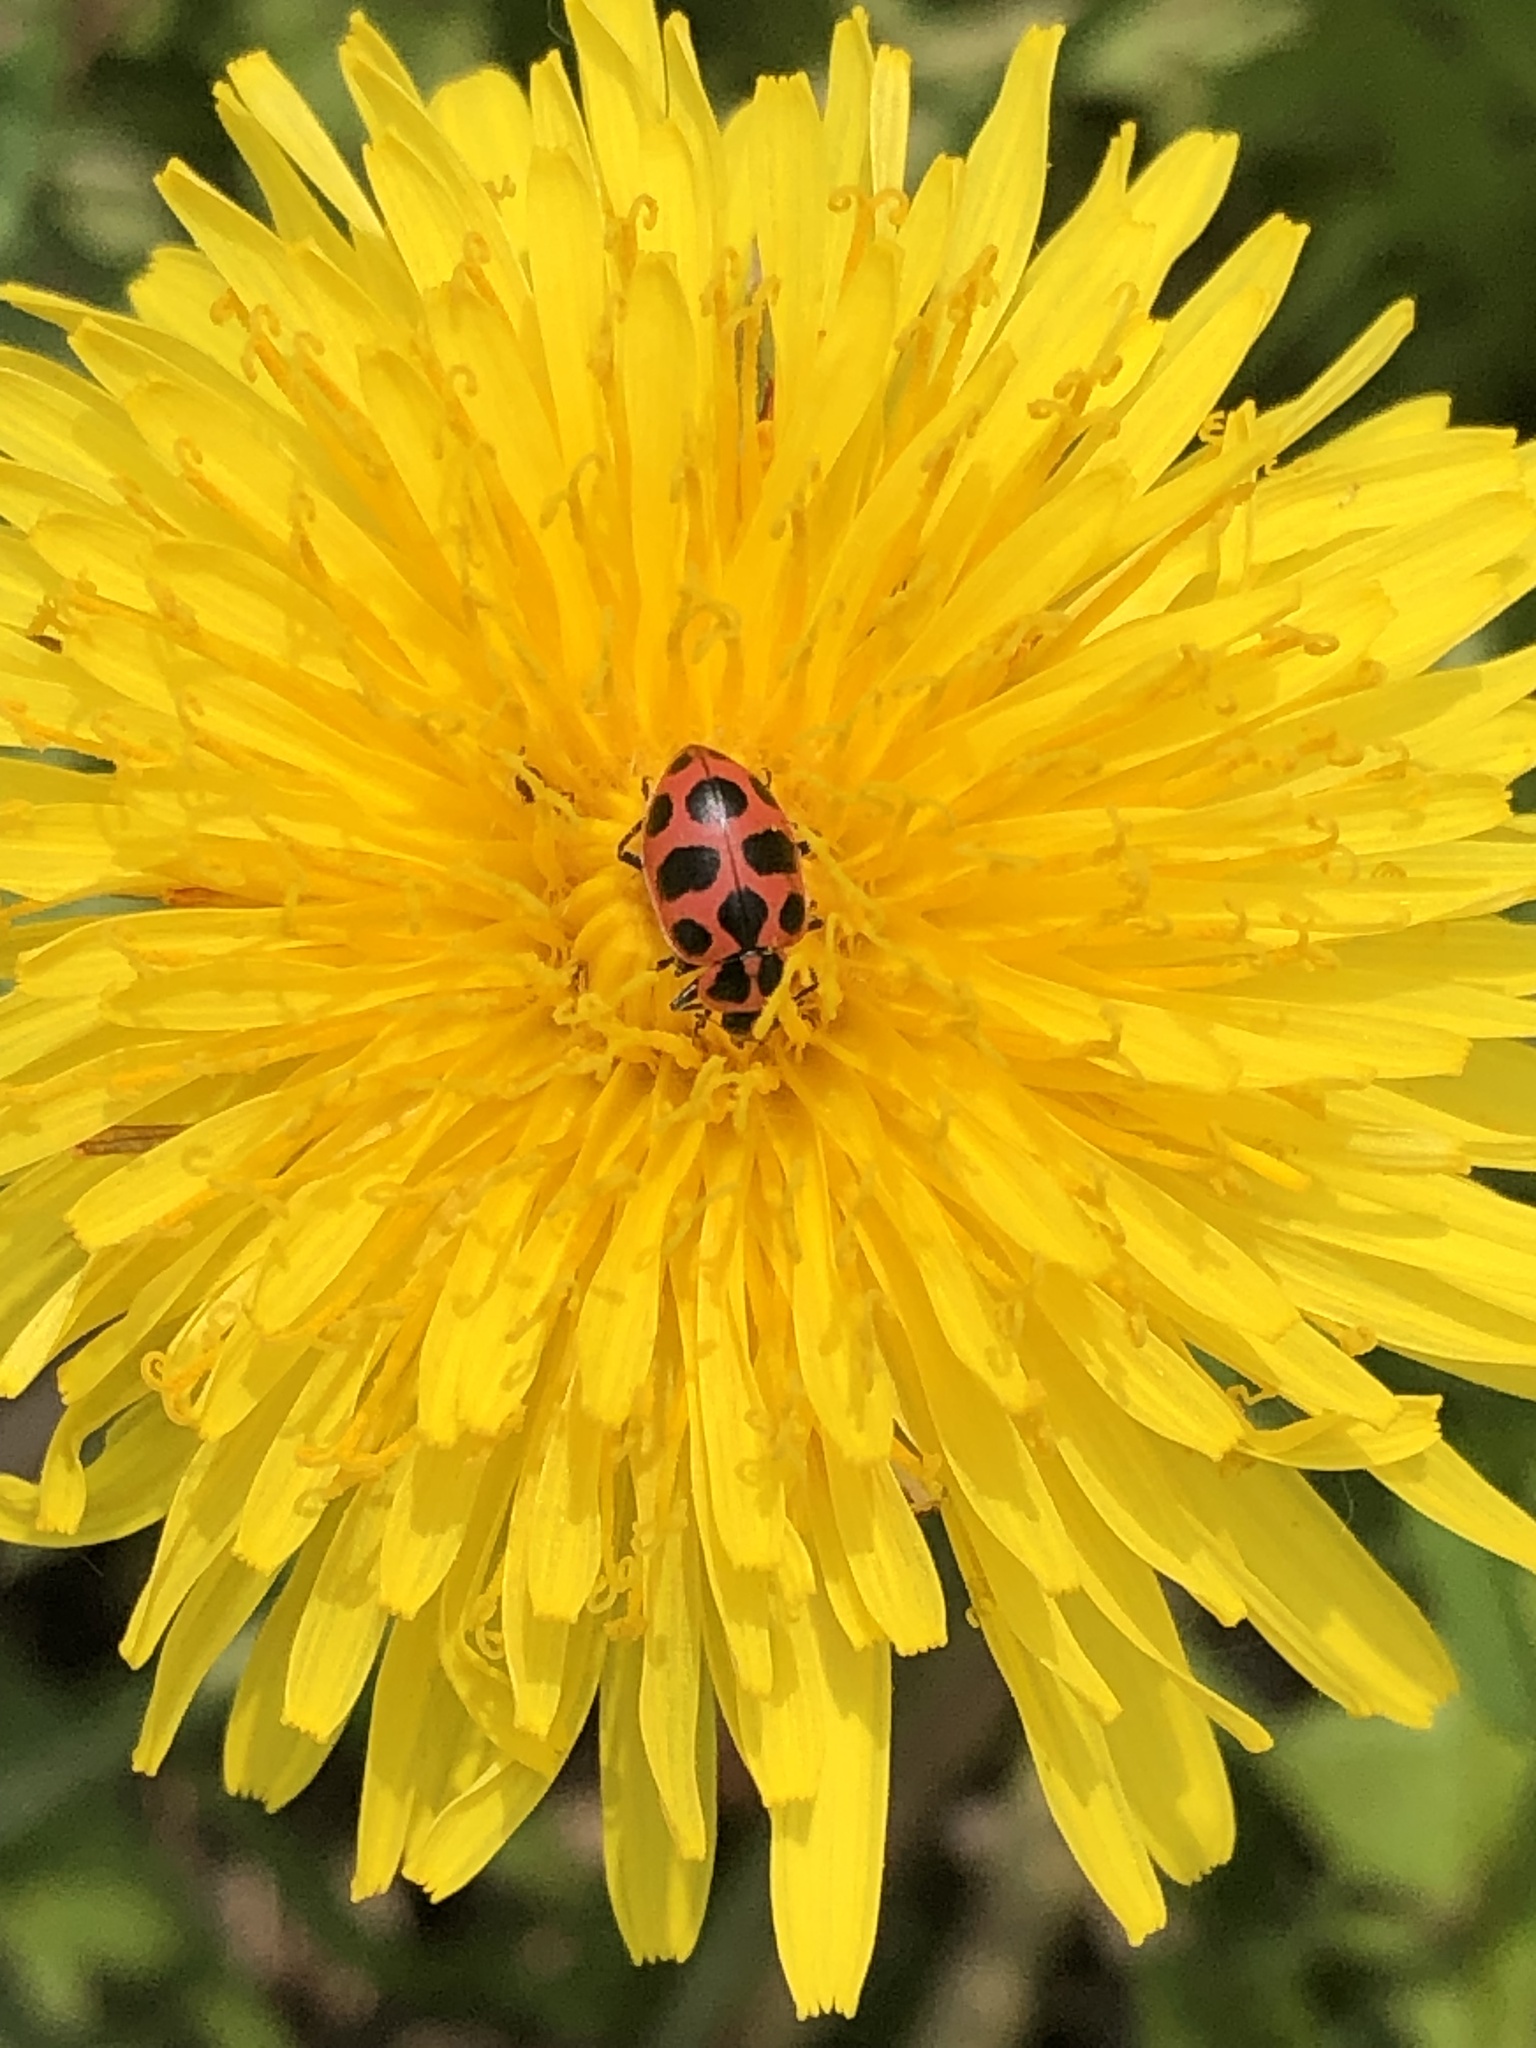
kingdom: Animalia
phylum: Arthropoda
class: Insecta
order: Coleoptera
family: Coccinellidae
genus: Coleomegilla
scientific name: Coleomegilla maculata
